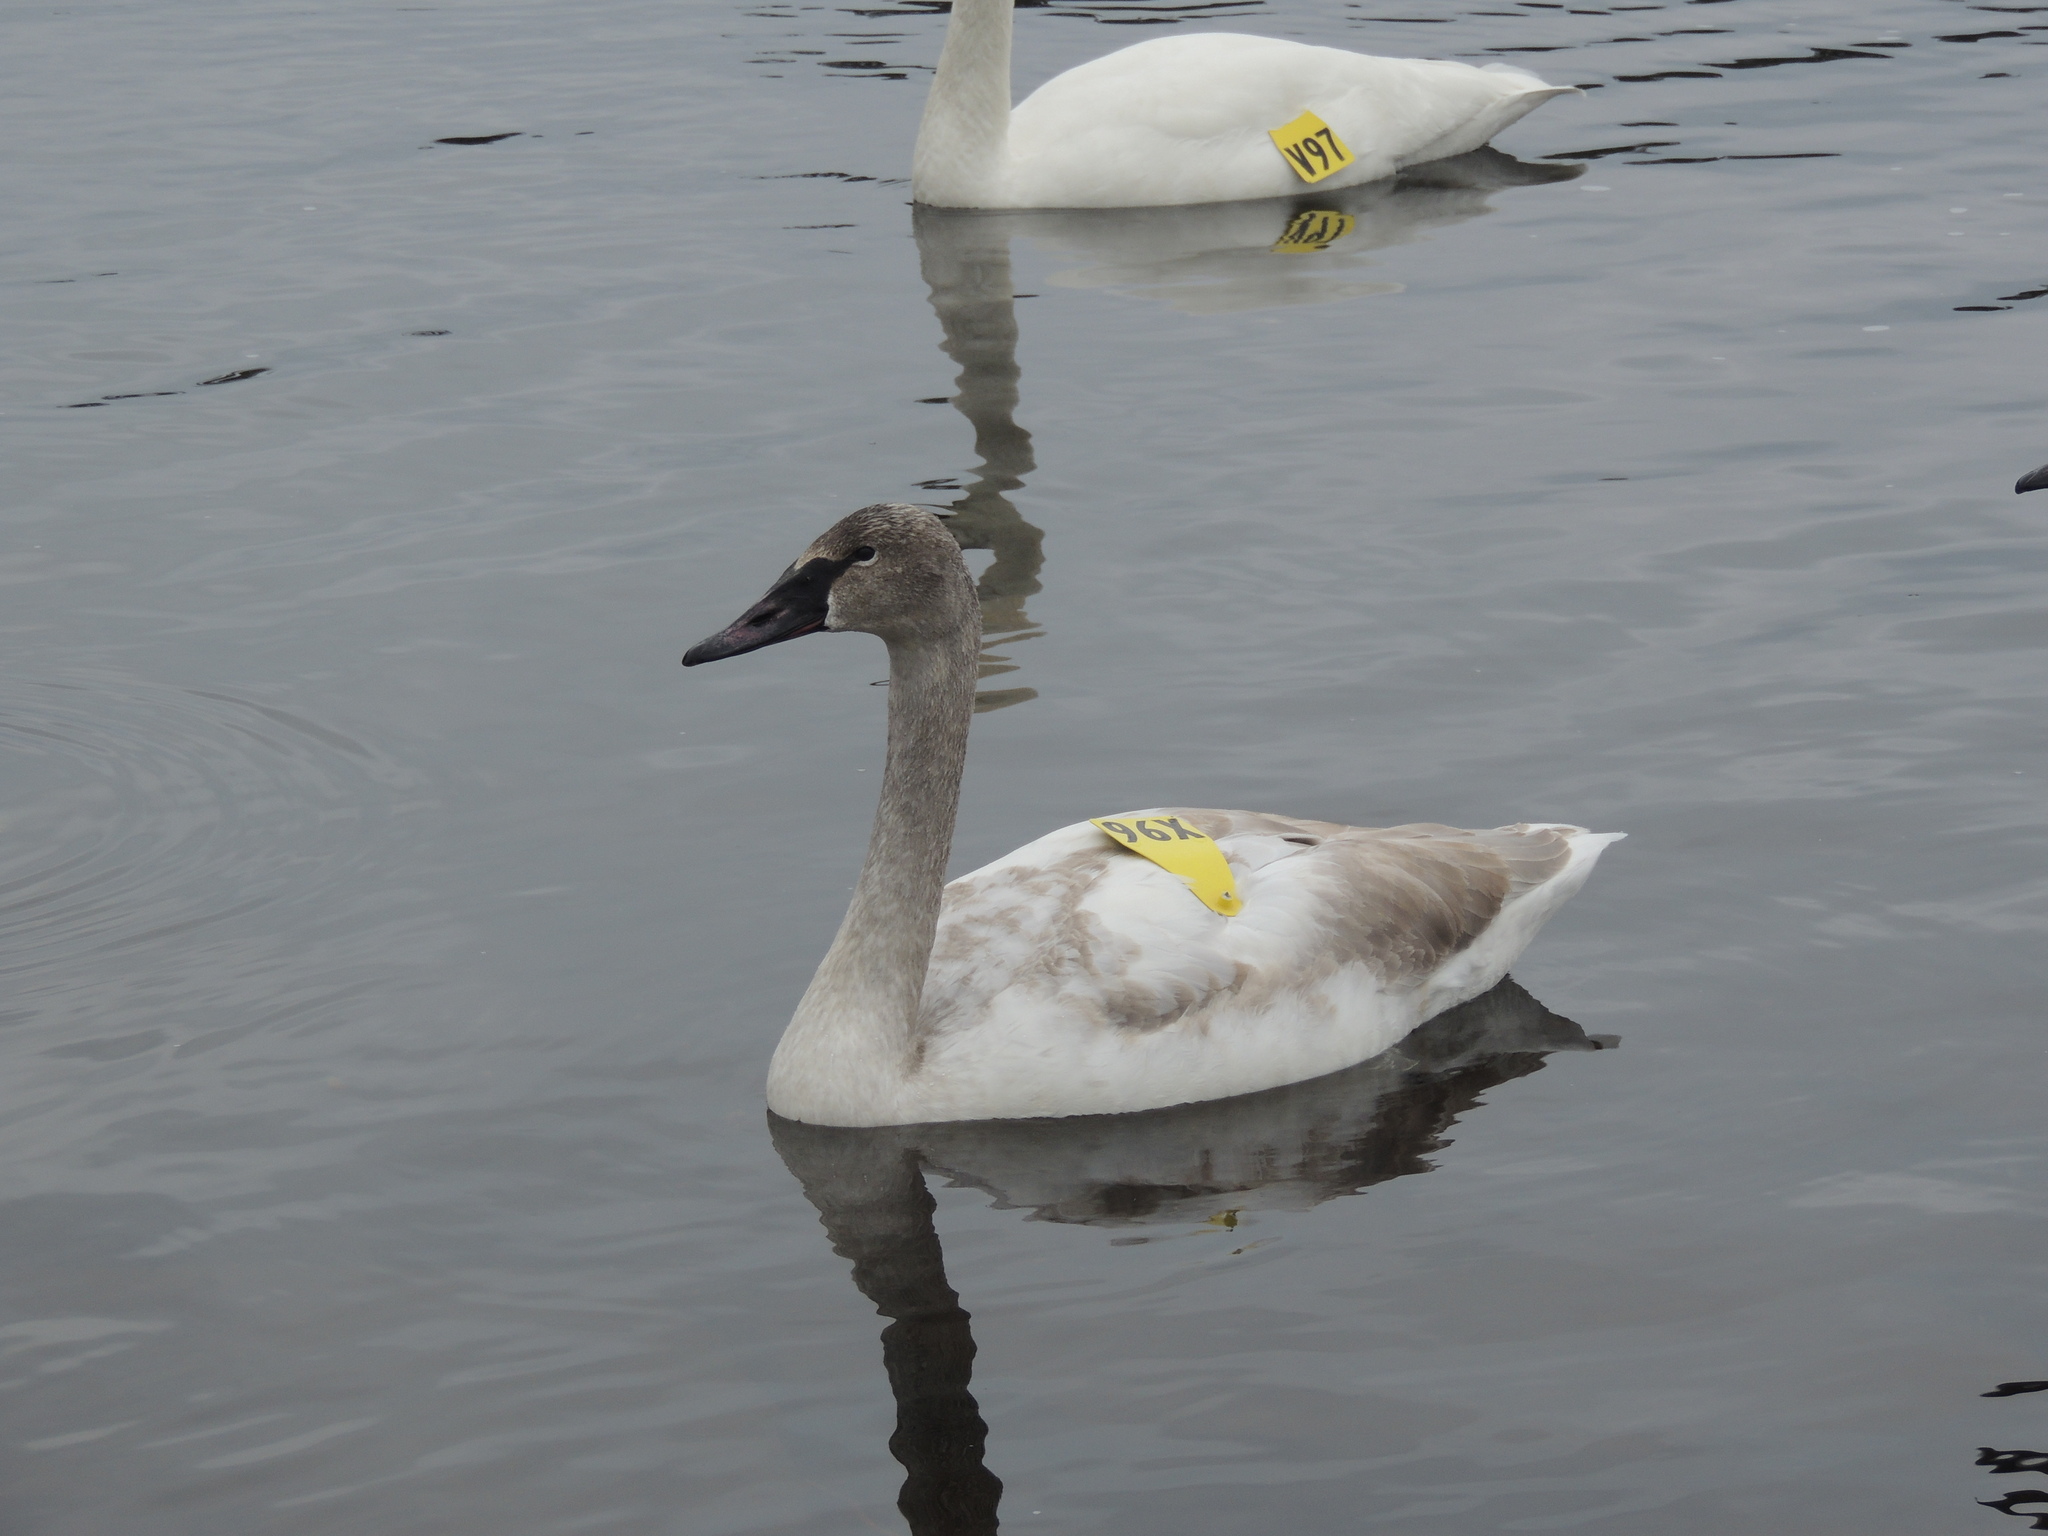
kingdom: Animalia
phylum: Chordata
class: Aves
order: Anseriformes
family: Anatidae
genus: Cygnus
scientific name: Cygnus buccinator
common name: Trumpeter swan
